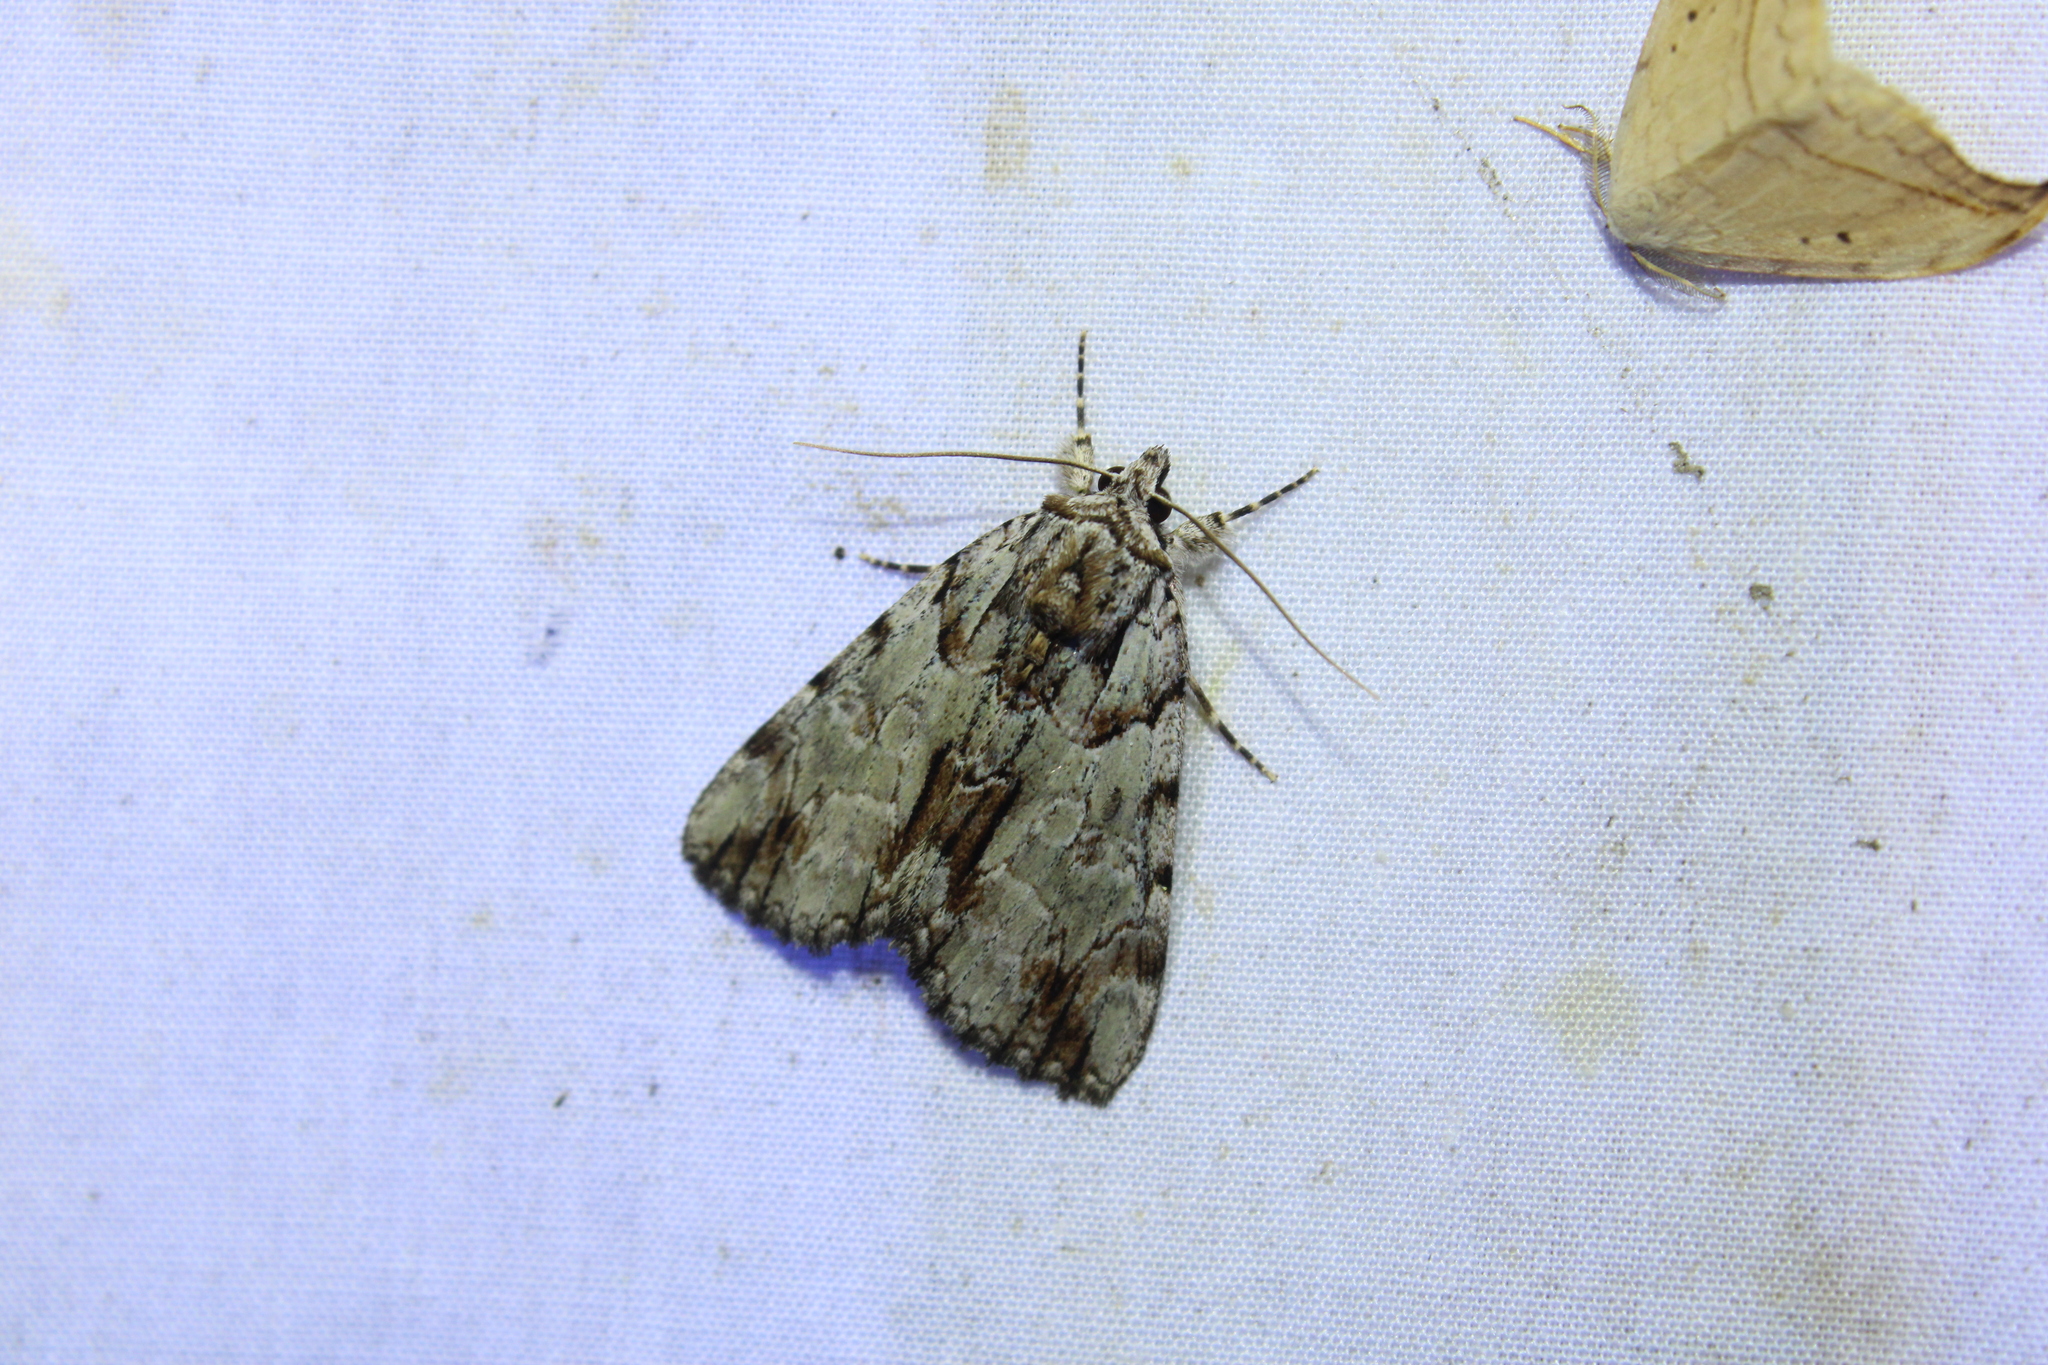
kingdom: Animalia
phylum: Arthropoda
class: Insecta
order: Lepidoptera
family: Erebidae
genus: Catocala
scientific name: Catocala praeclara
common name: Praeclara underwing
